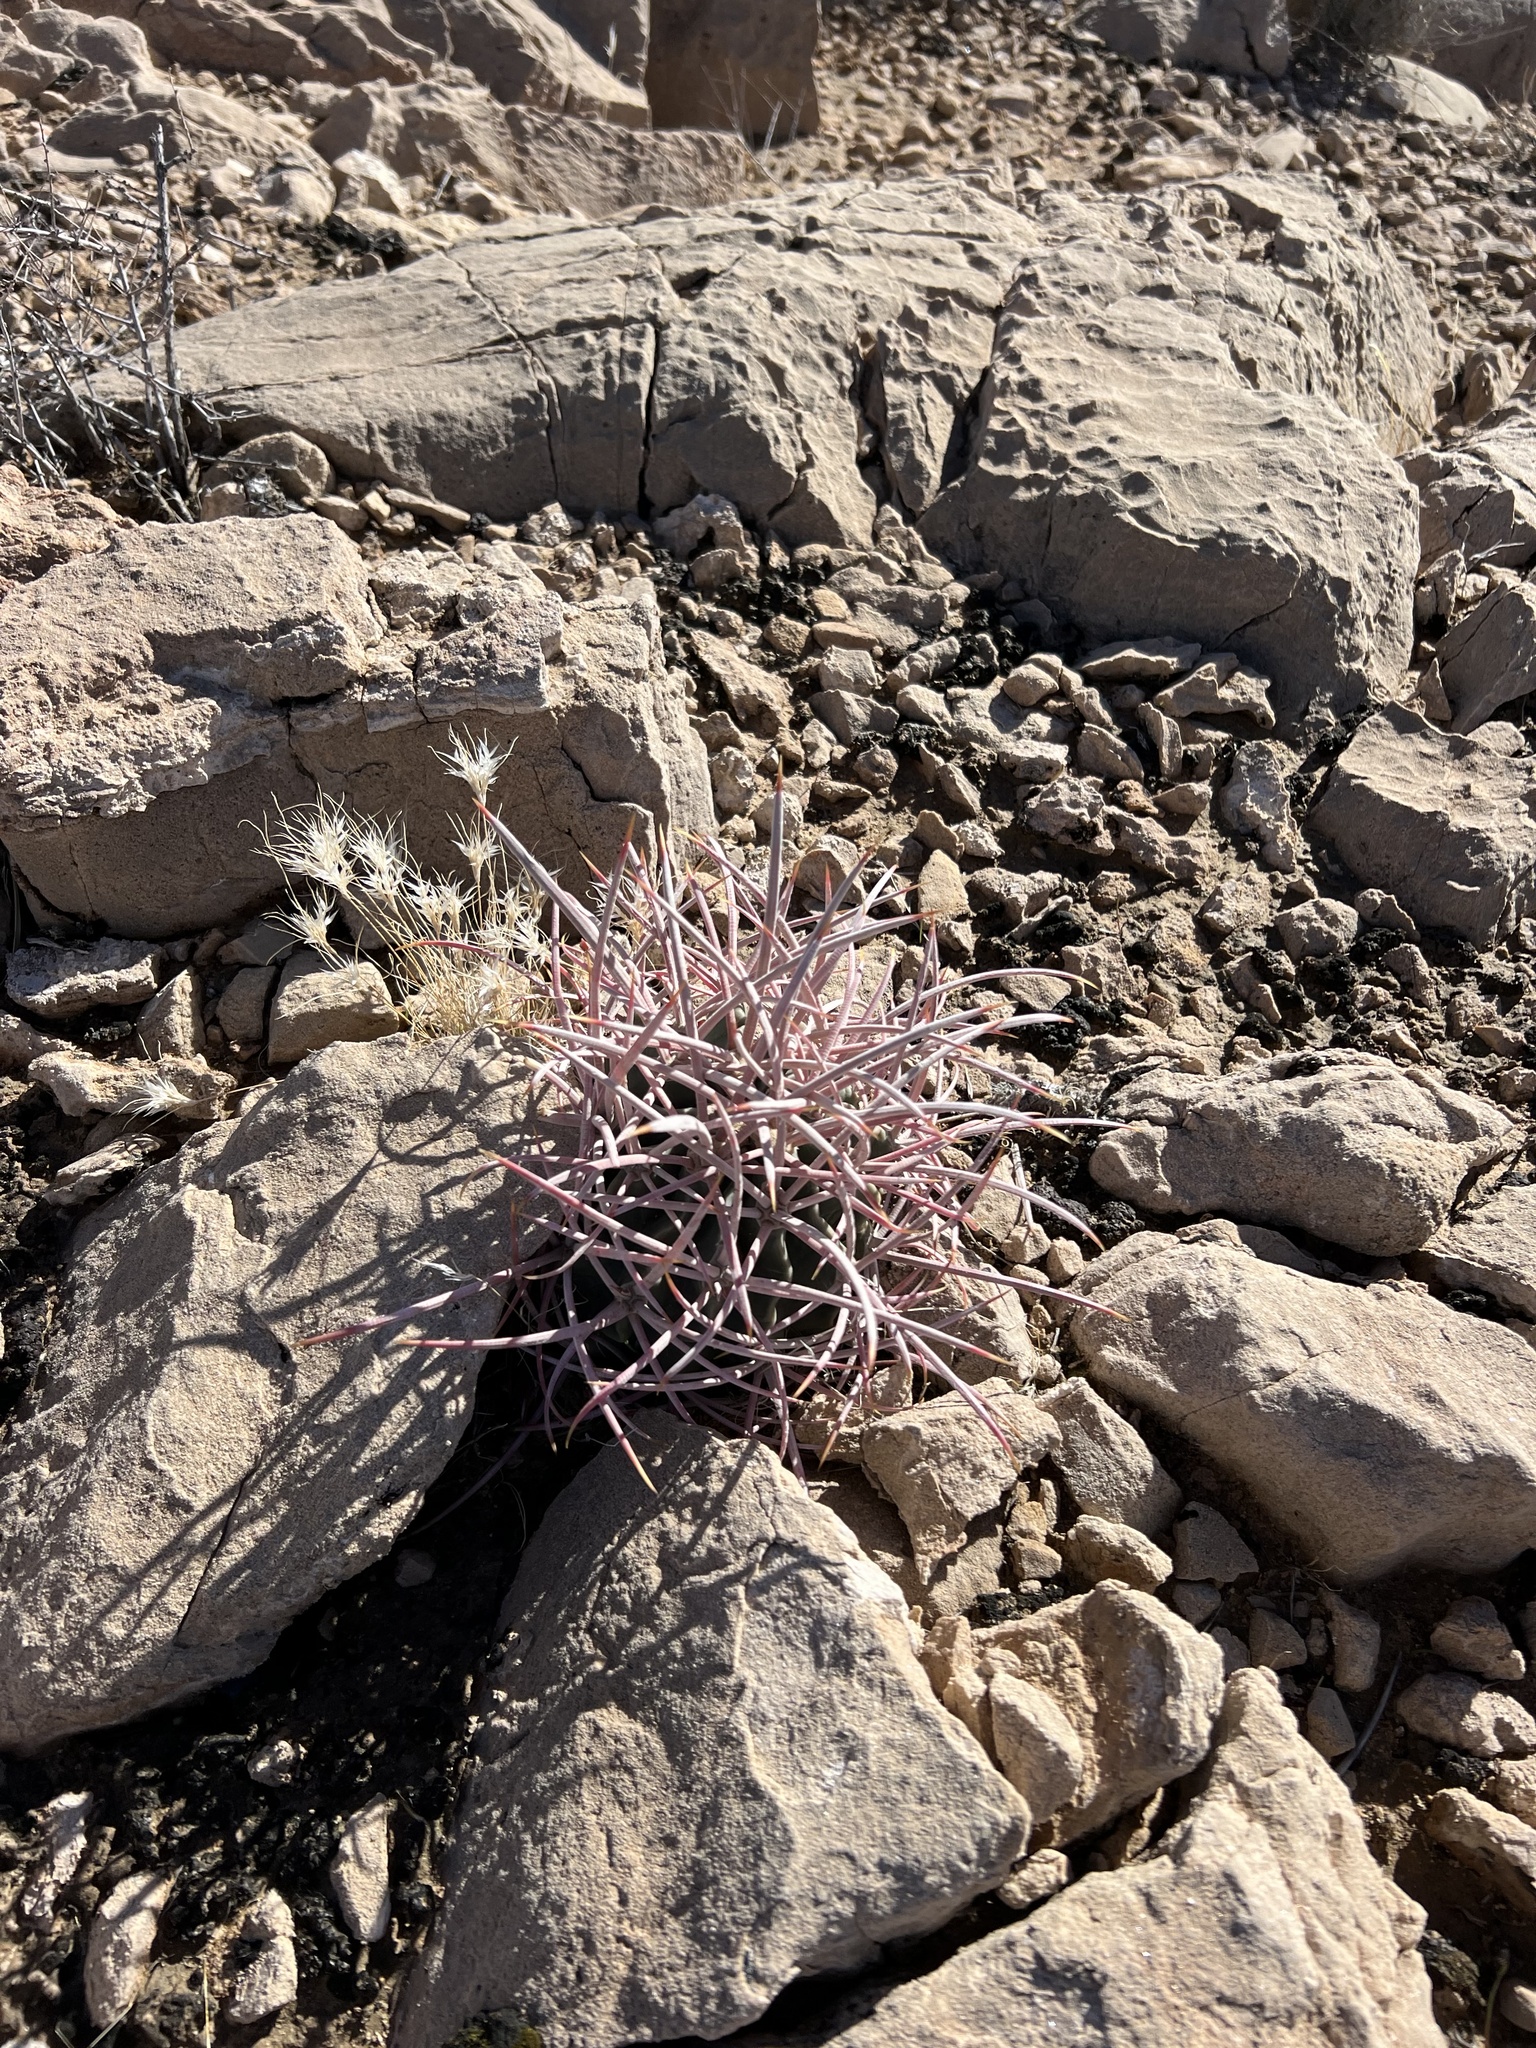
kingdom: Plantae
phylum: Tracheophyta
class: Magnoliopsida
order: Caryophyllales
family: Cactaceae
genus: Echinocactus
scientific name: Echinocactus polycephalus
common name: Cottontop cactus
